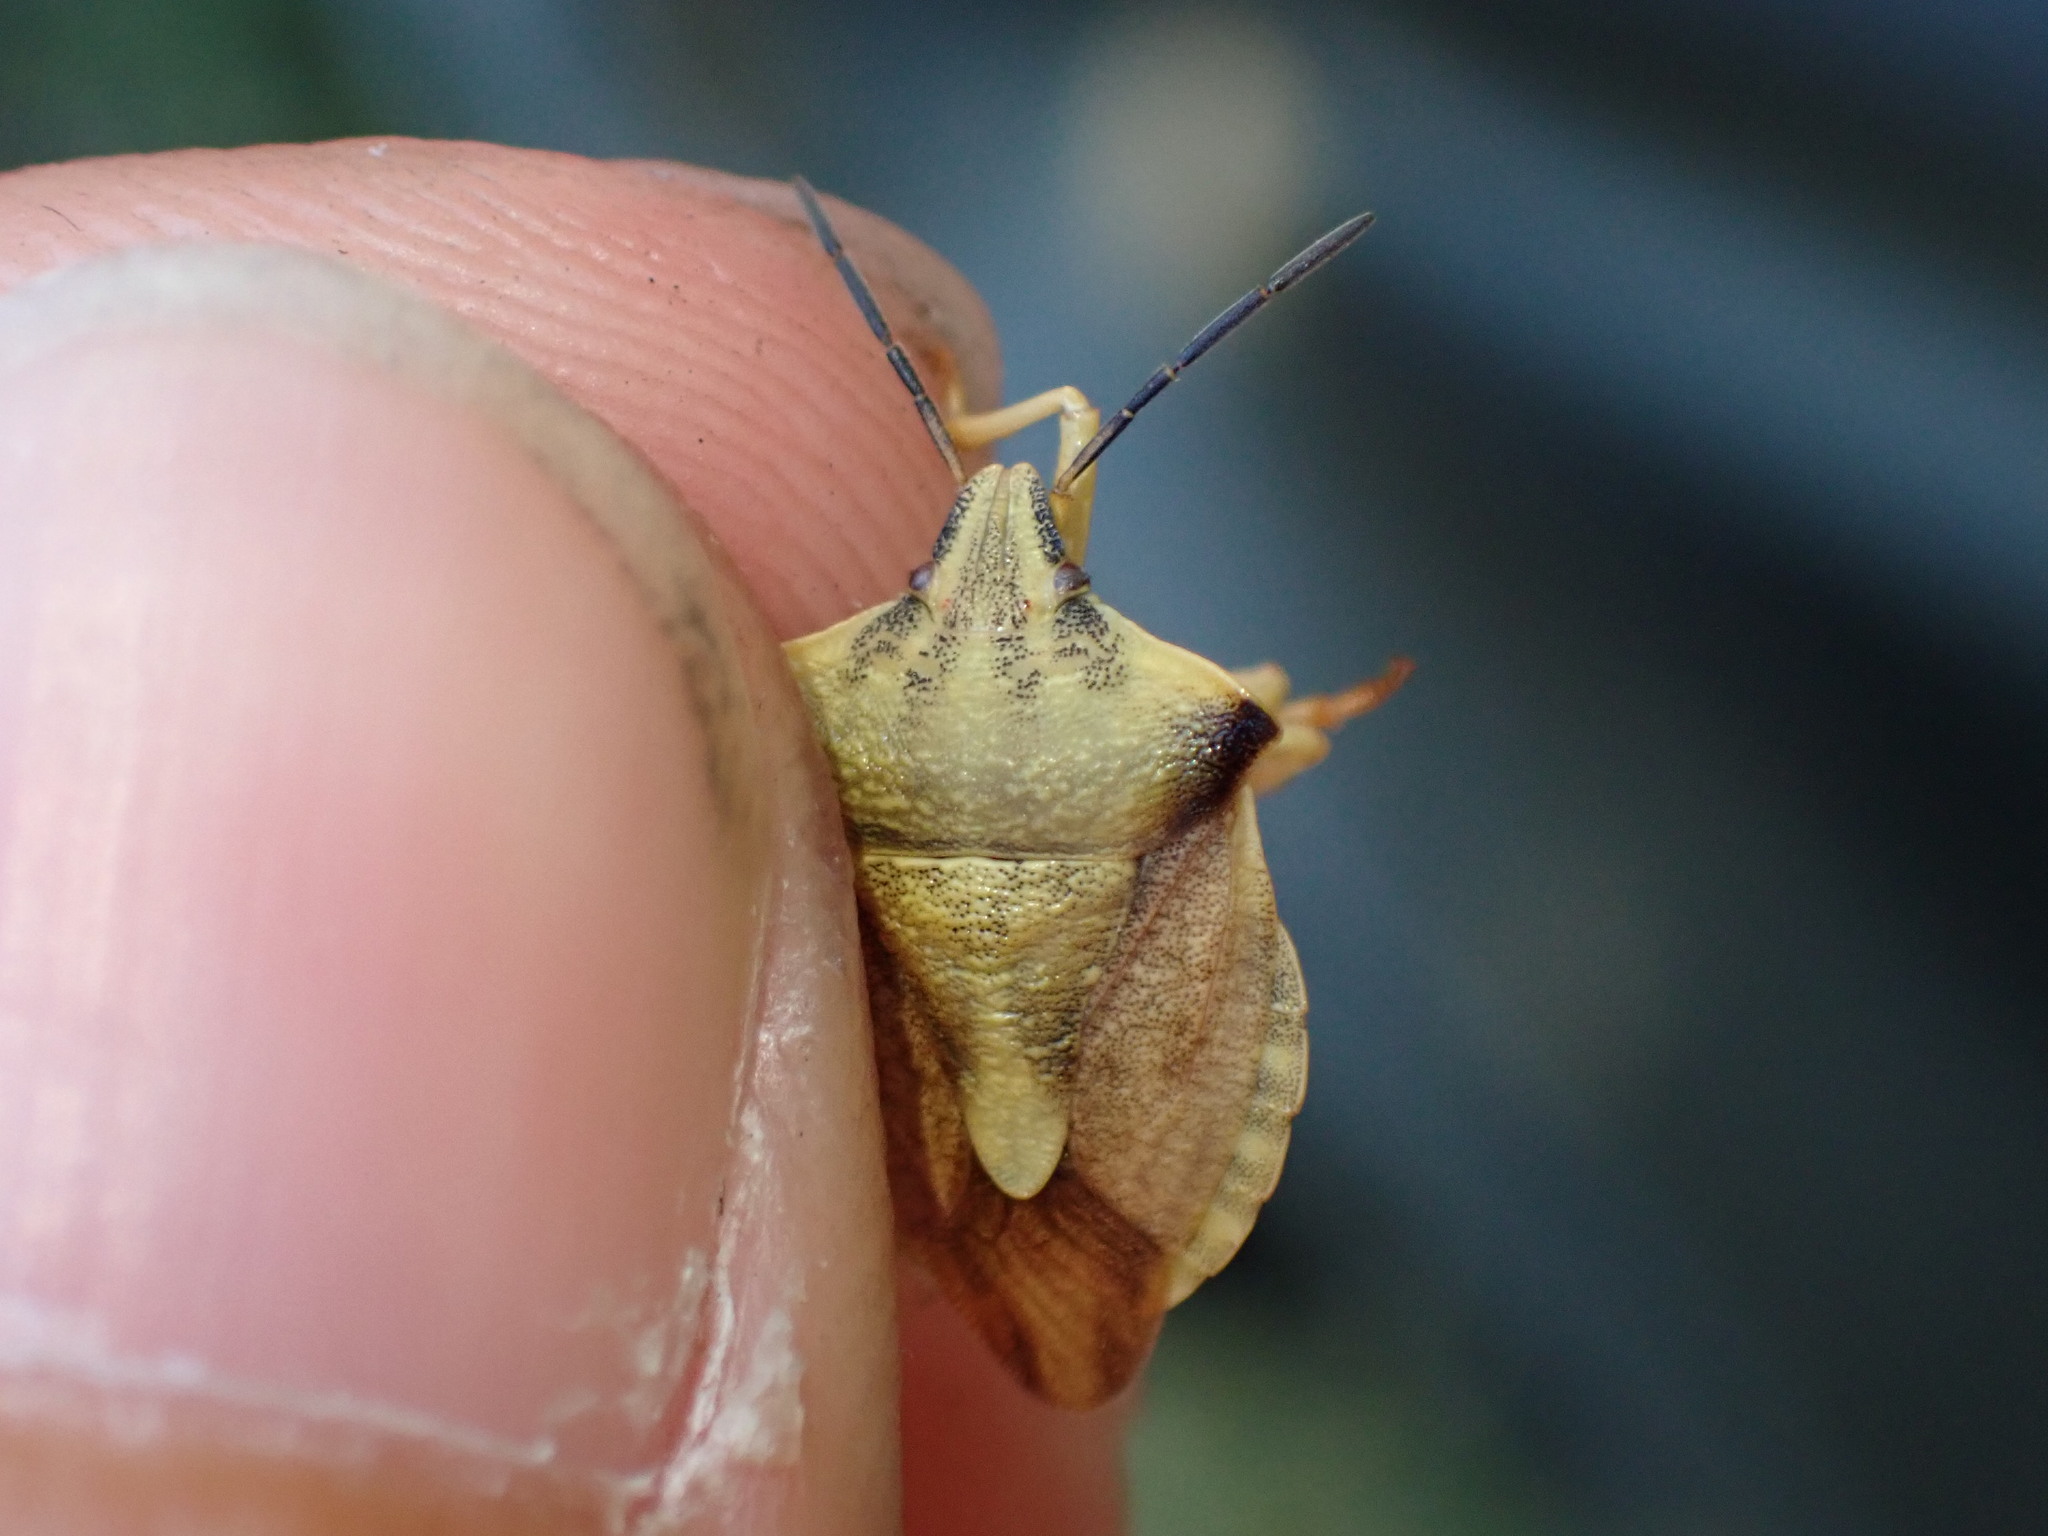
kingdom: Animalia
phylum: Arthropoda
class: Insecta
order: Hemiptera
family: Pentatomidae
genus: Carpocoris
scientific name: Carpocoris fuscispinus
